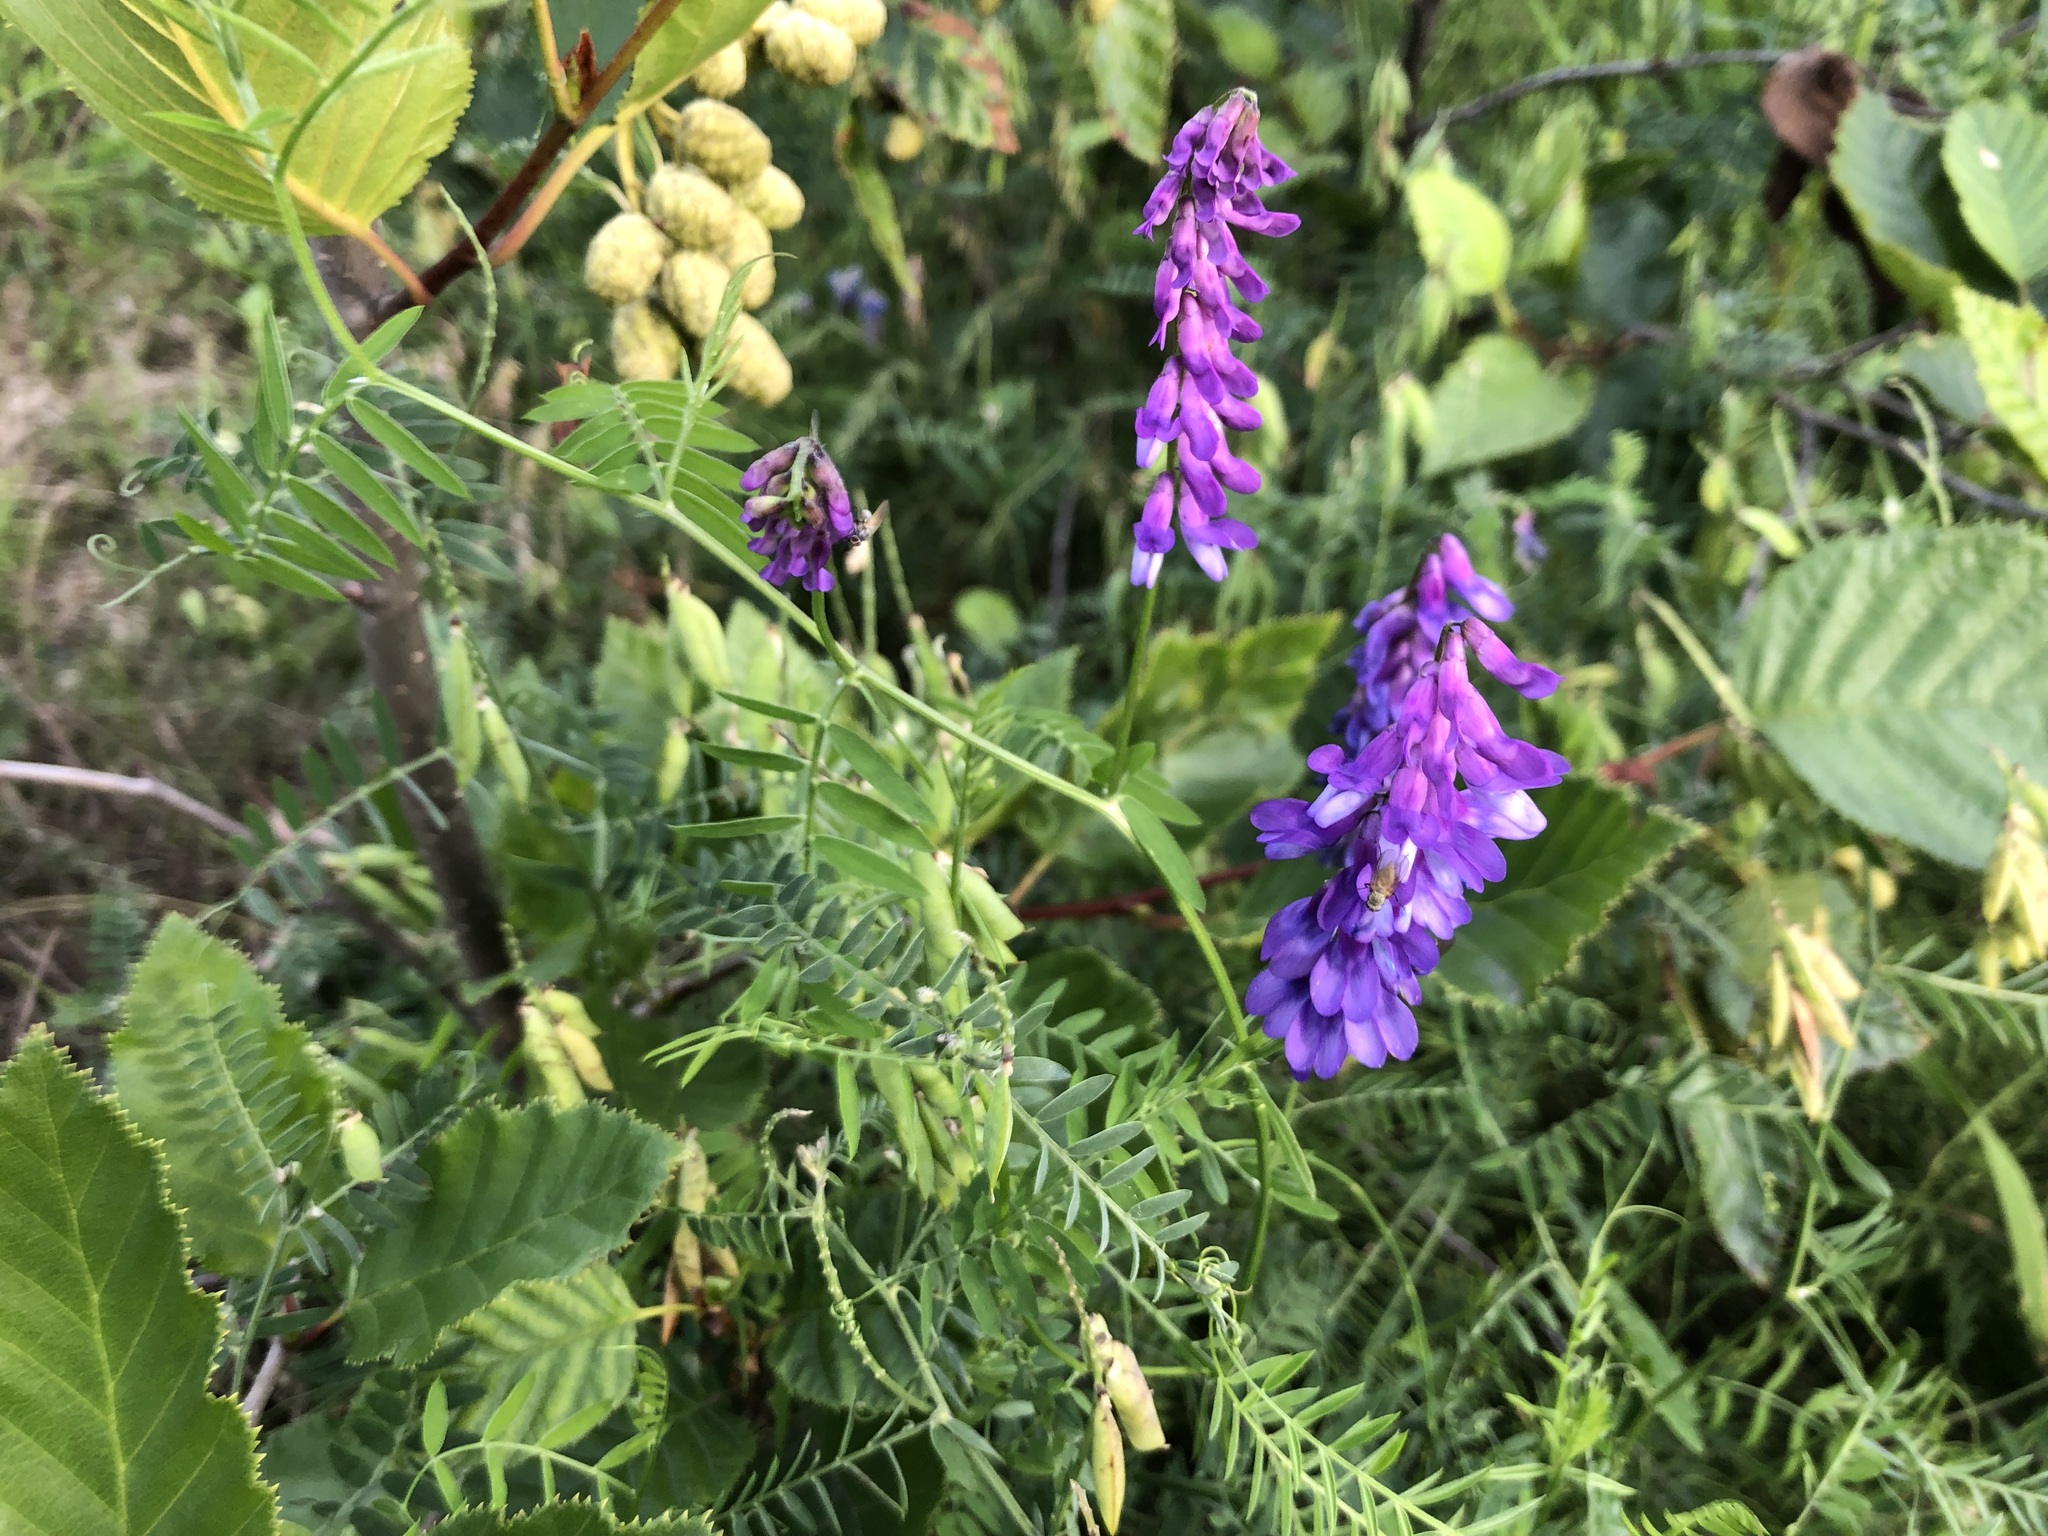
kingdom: Plantae
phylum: Tracheophyta
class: Magnoliopsida
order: Fabales
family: Fabaceae
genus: Vicia
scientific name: Vicia cracca
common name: Bird vetch
